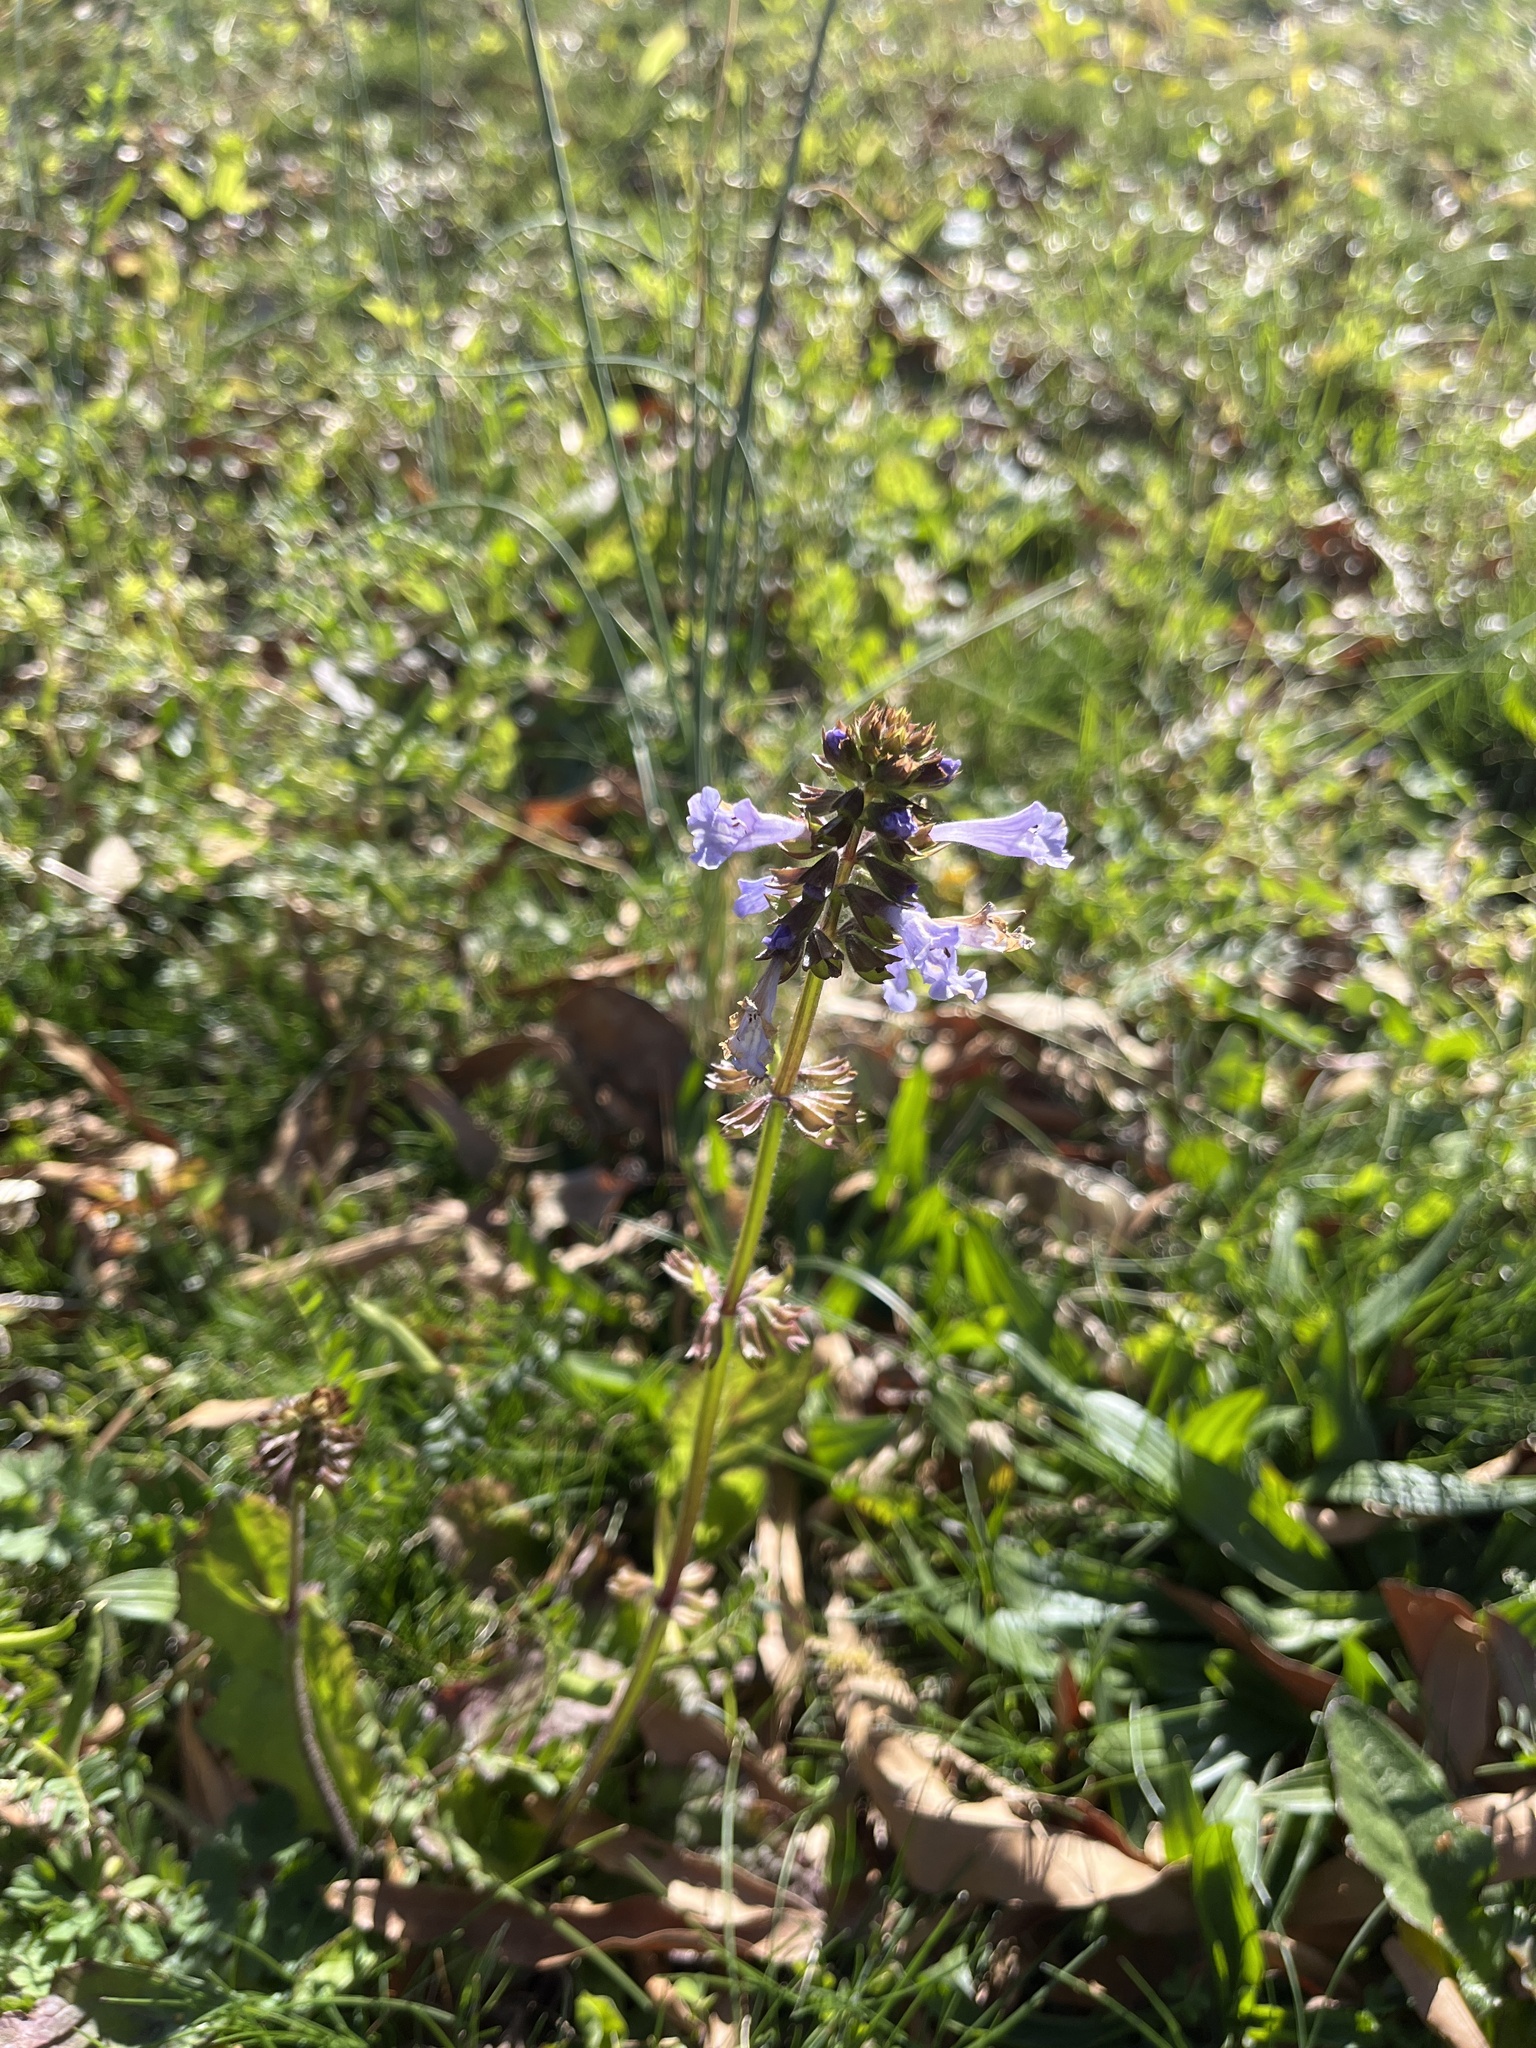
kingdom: Plantae
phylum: Tracheophyta
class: Magnoliopsida
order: Lamiales
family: Lamiaceae
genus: Salvia
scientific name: Salvia lyrata
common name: Cancerweed
